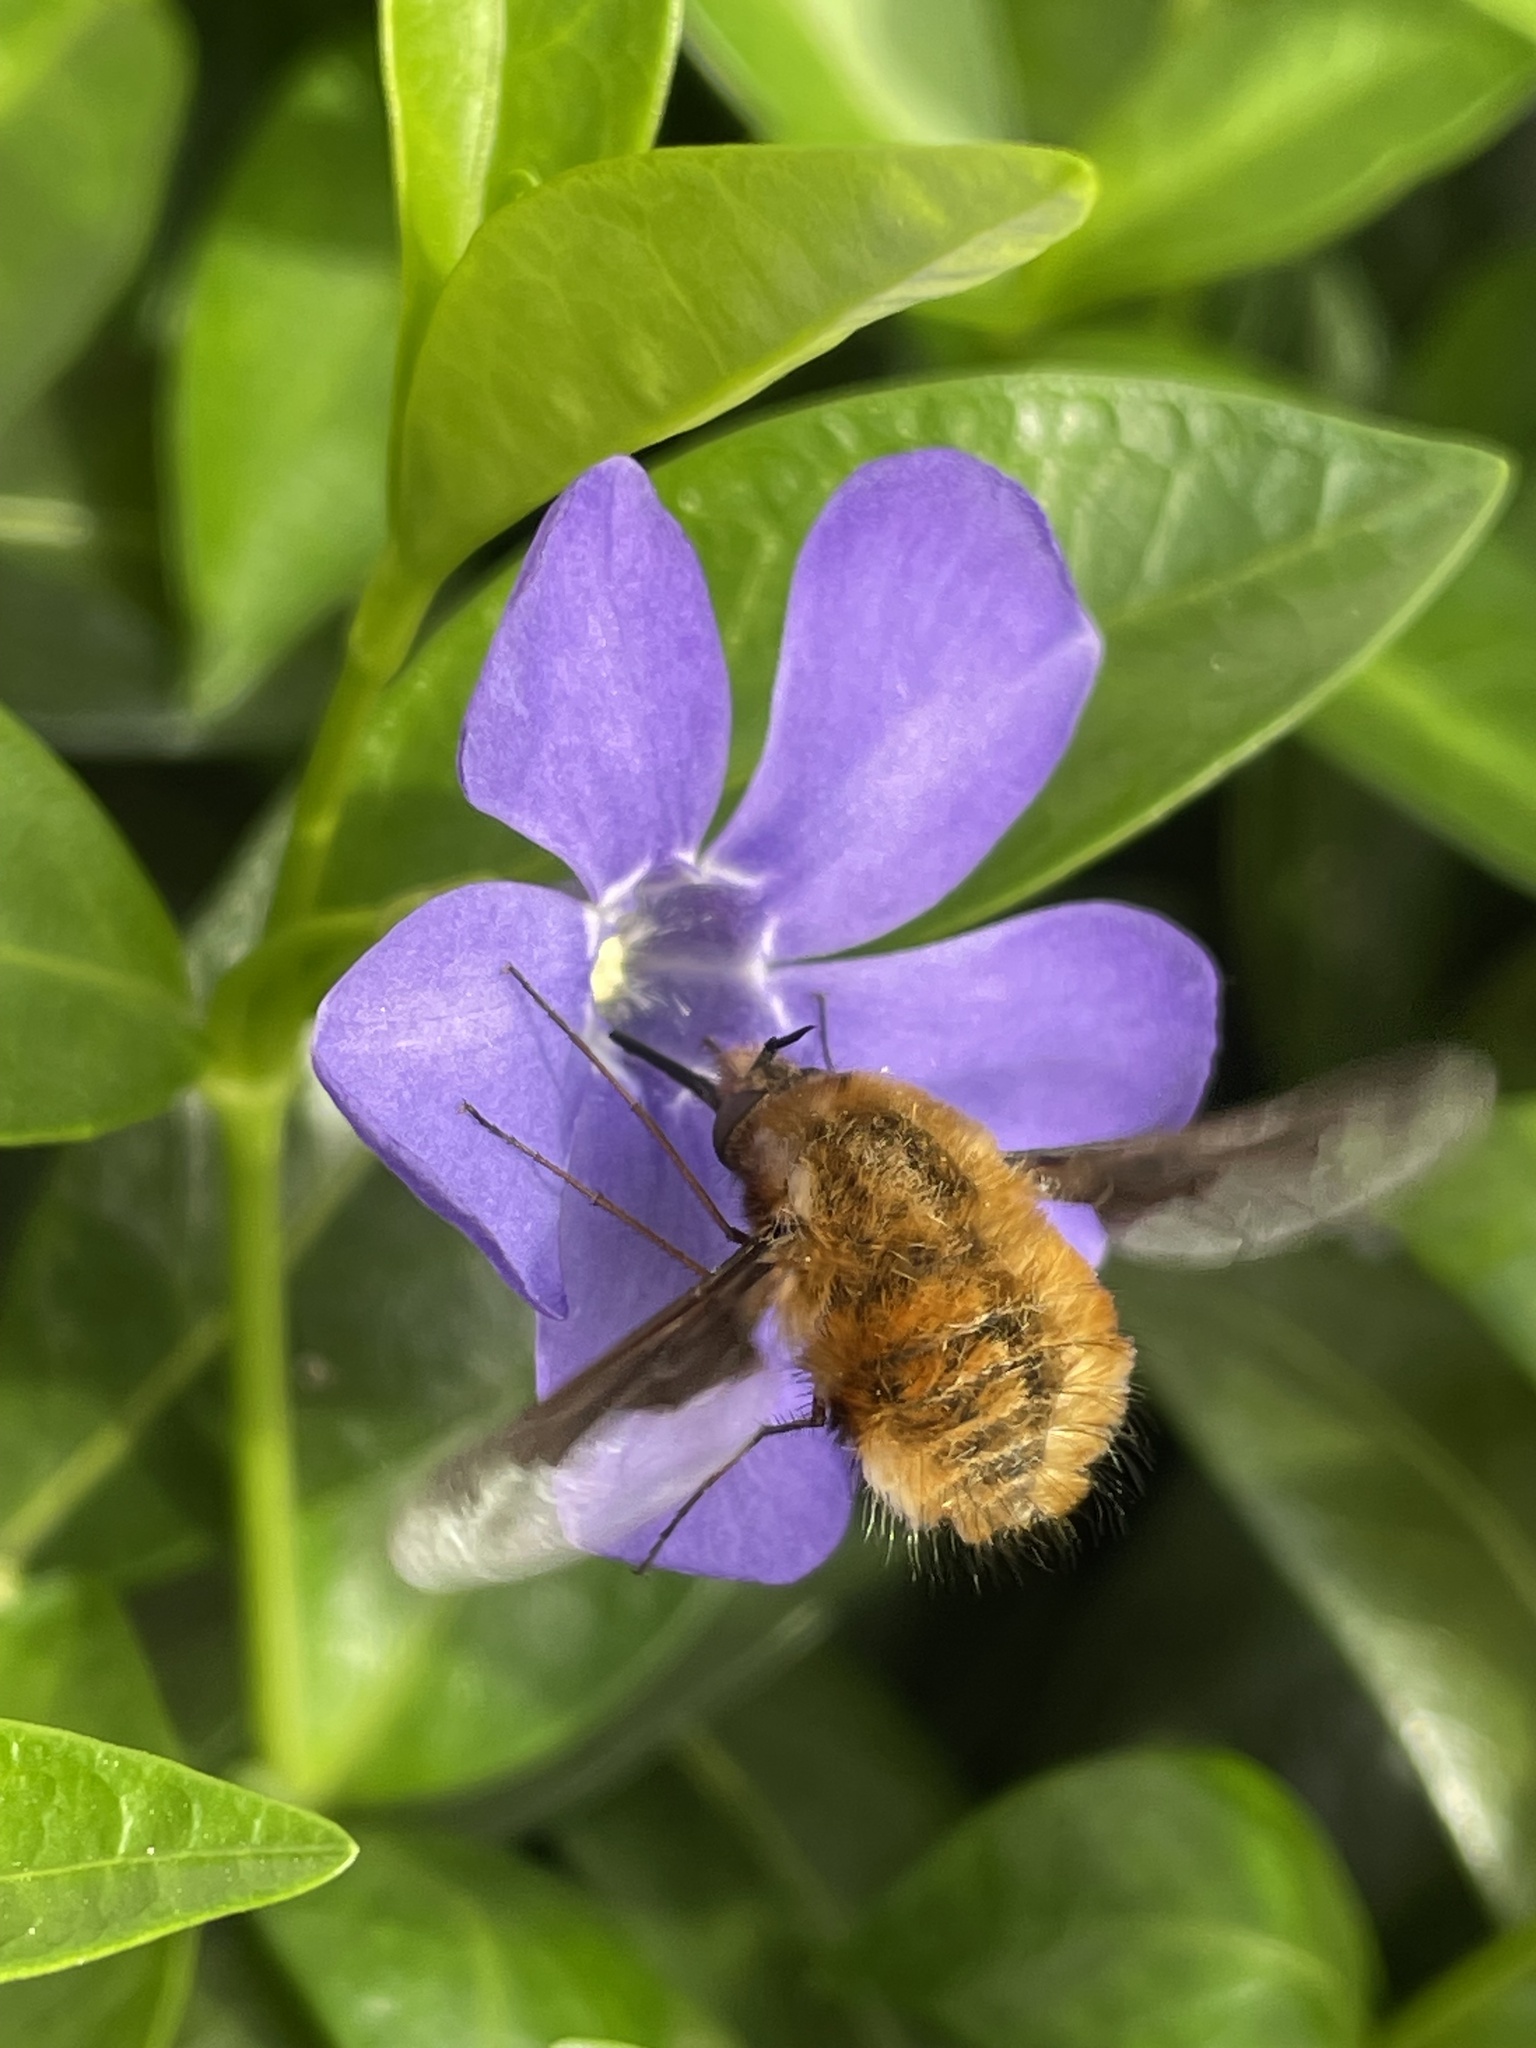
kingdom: Animalia
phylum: Arthropoda
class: Insecta
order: Diptera
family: Bombyliidae
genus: Bombylius
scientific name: Bombylius major
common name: Bee fly
